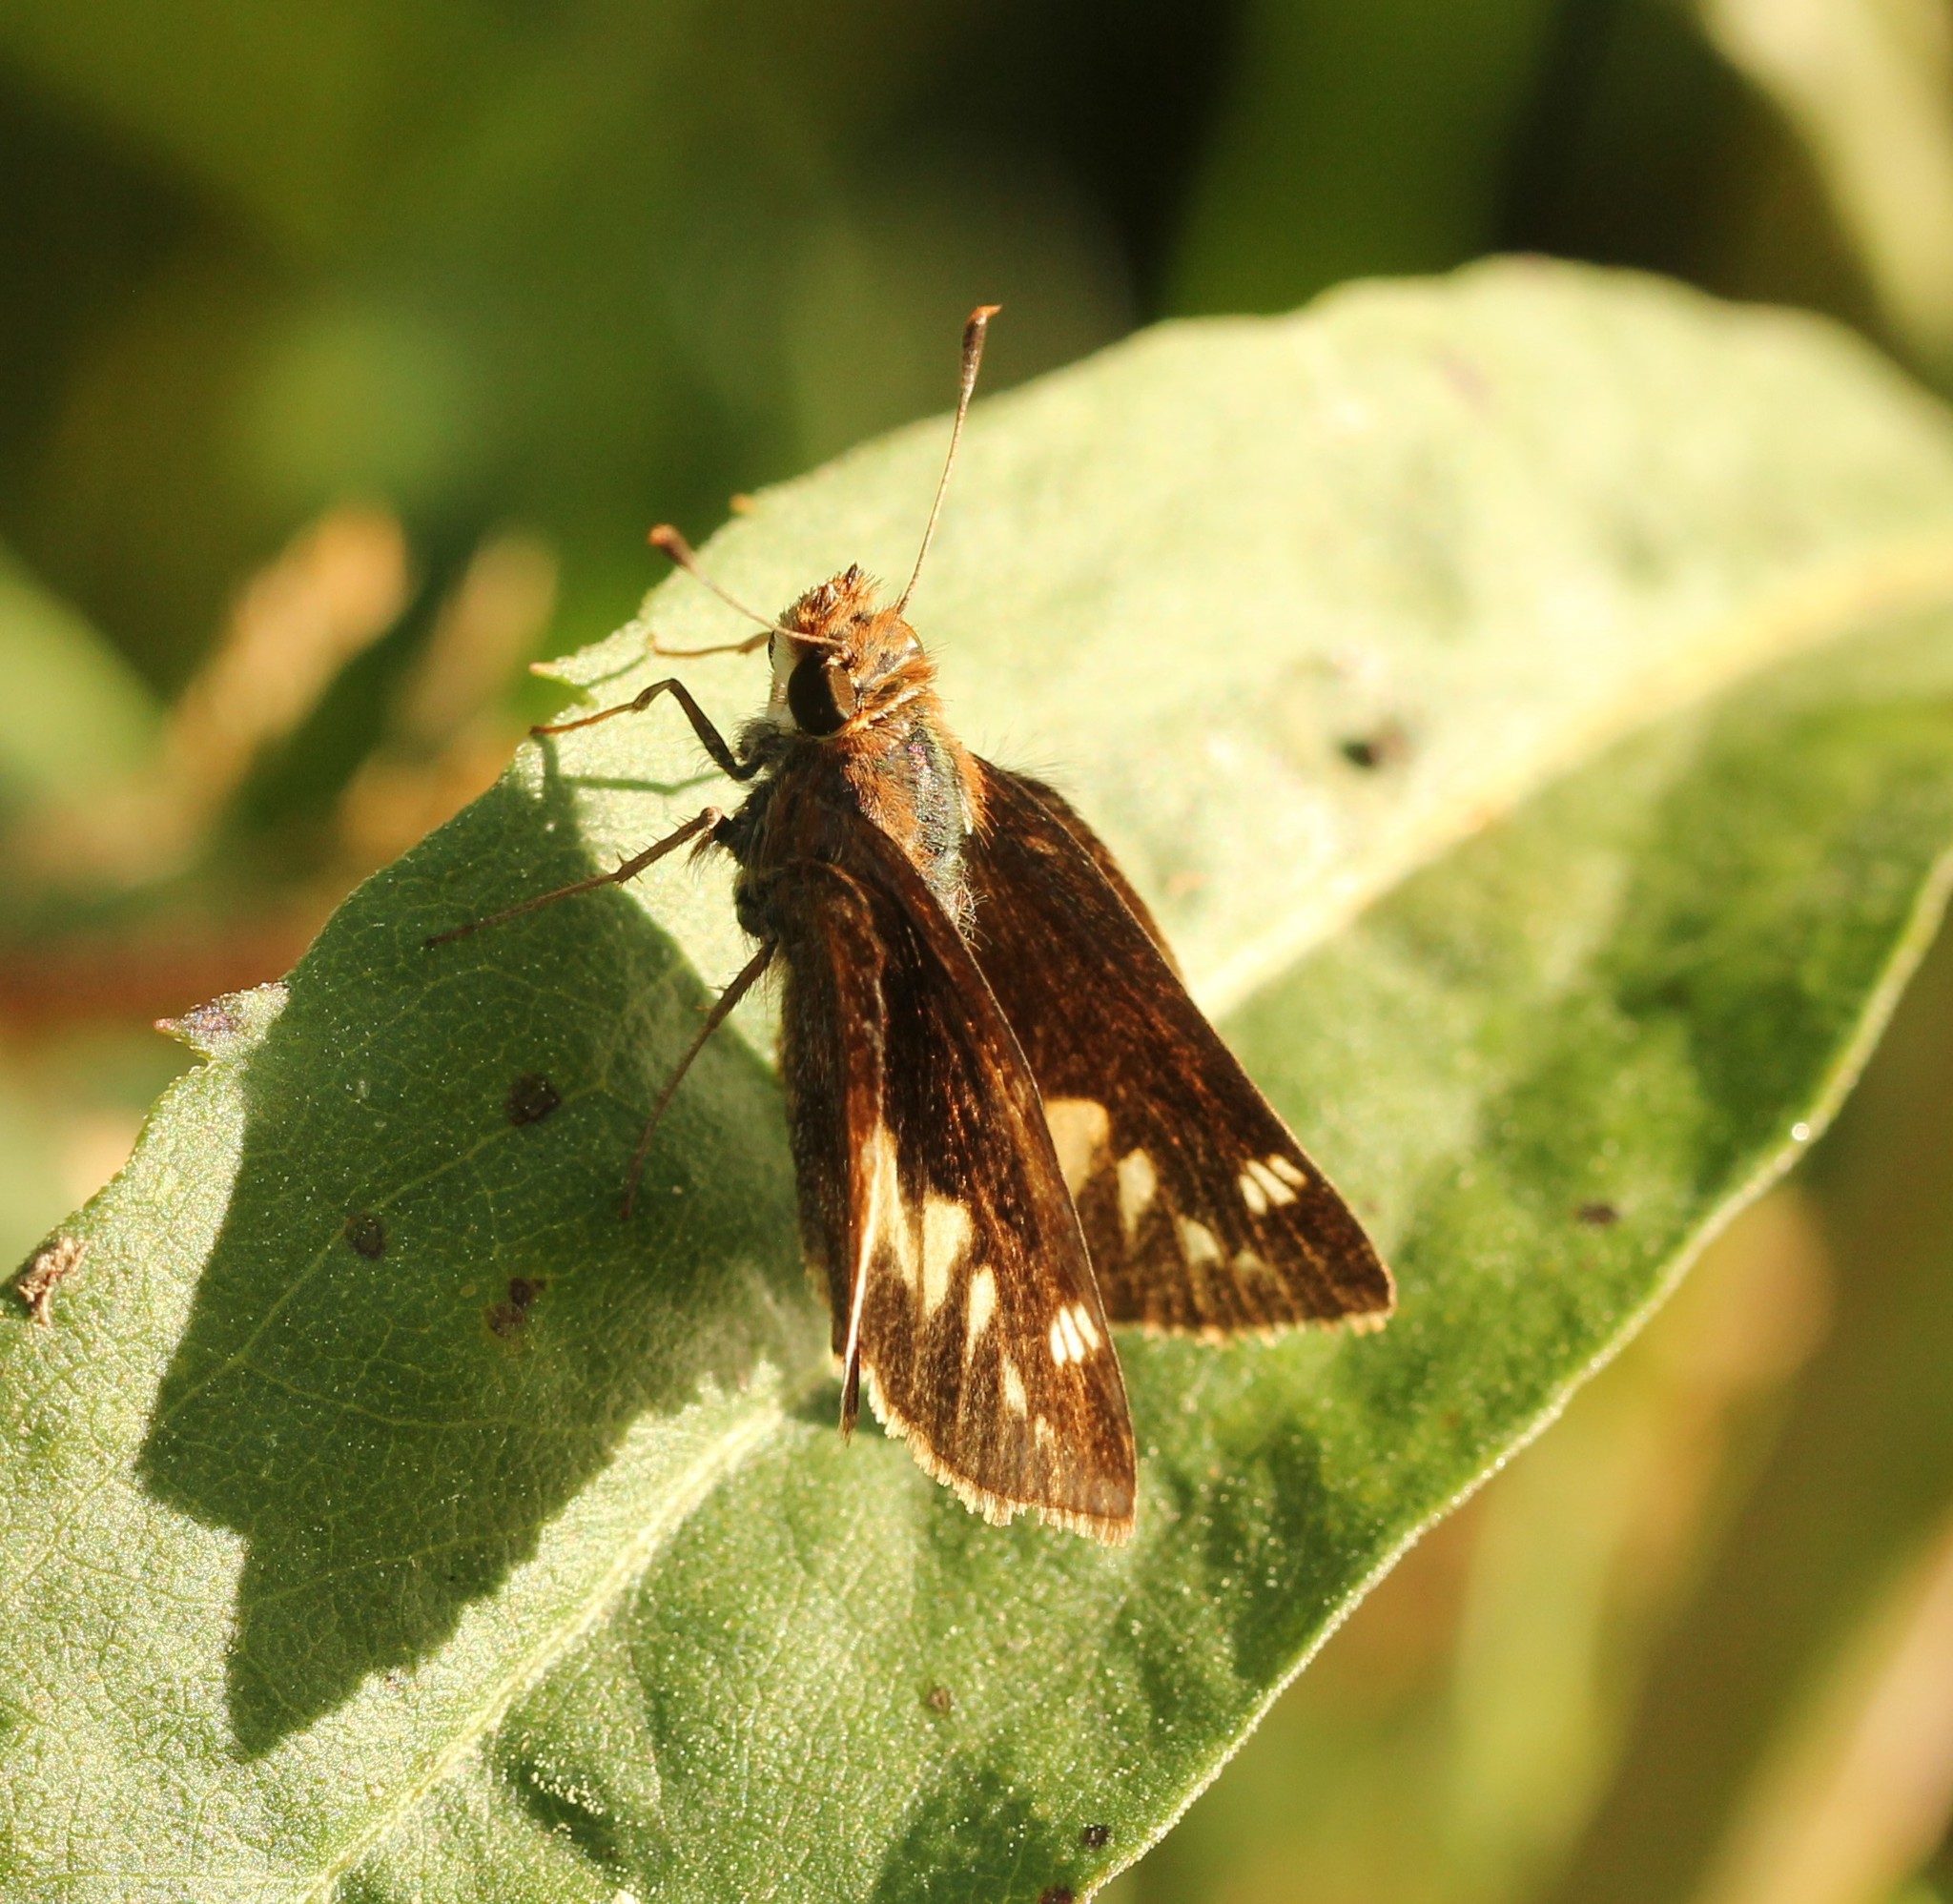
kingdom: Animalia
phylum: Arthropoda
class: Insecta
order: Lepidoptera
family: Hesperiidae
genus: Lon
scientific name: Lon zabulon
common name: Zabulon skipper
